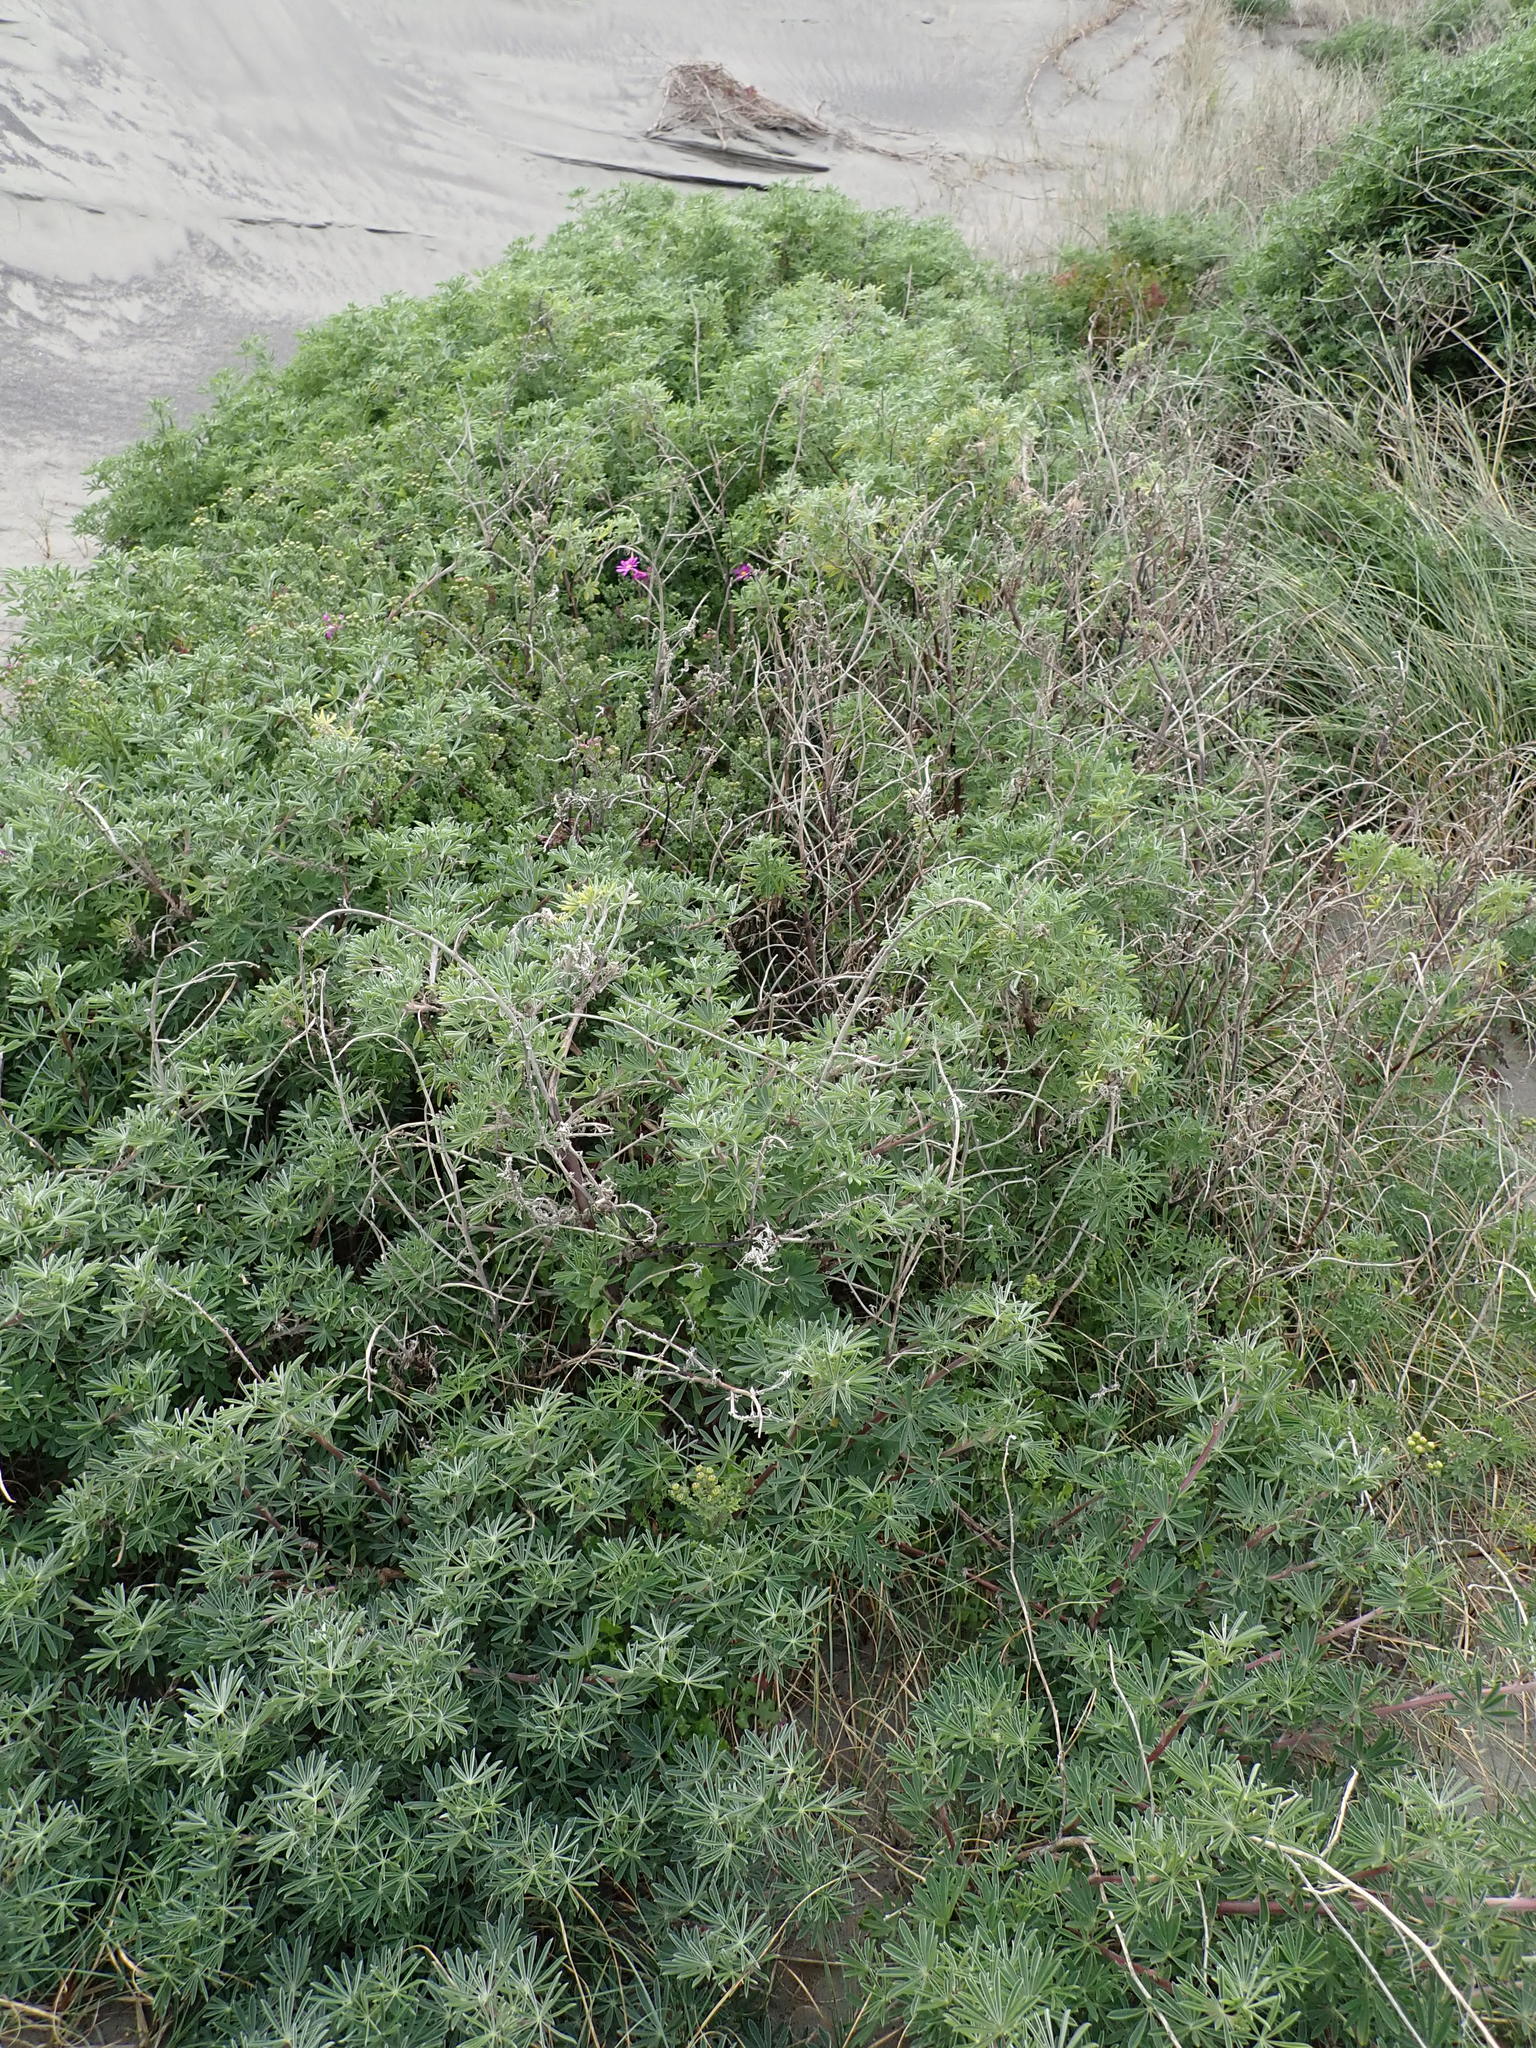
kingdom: Plantae
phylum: Tracheophyta
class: Magnoliopsida
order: Asterales
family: Asteraceae
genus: Senecio
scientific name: Senecio elegans
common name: Purple groundsel
